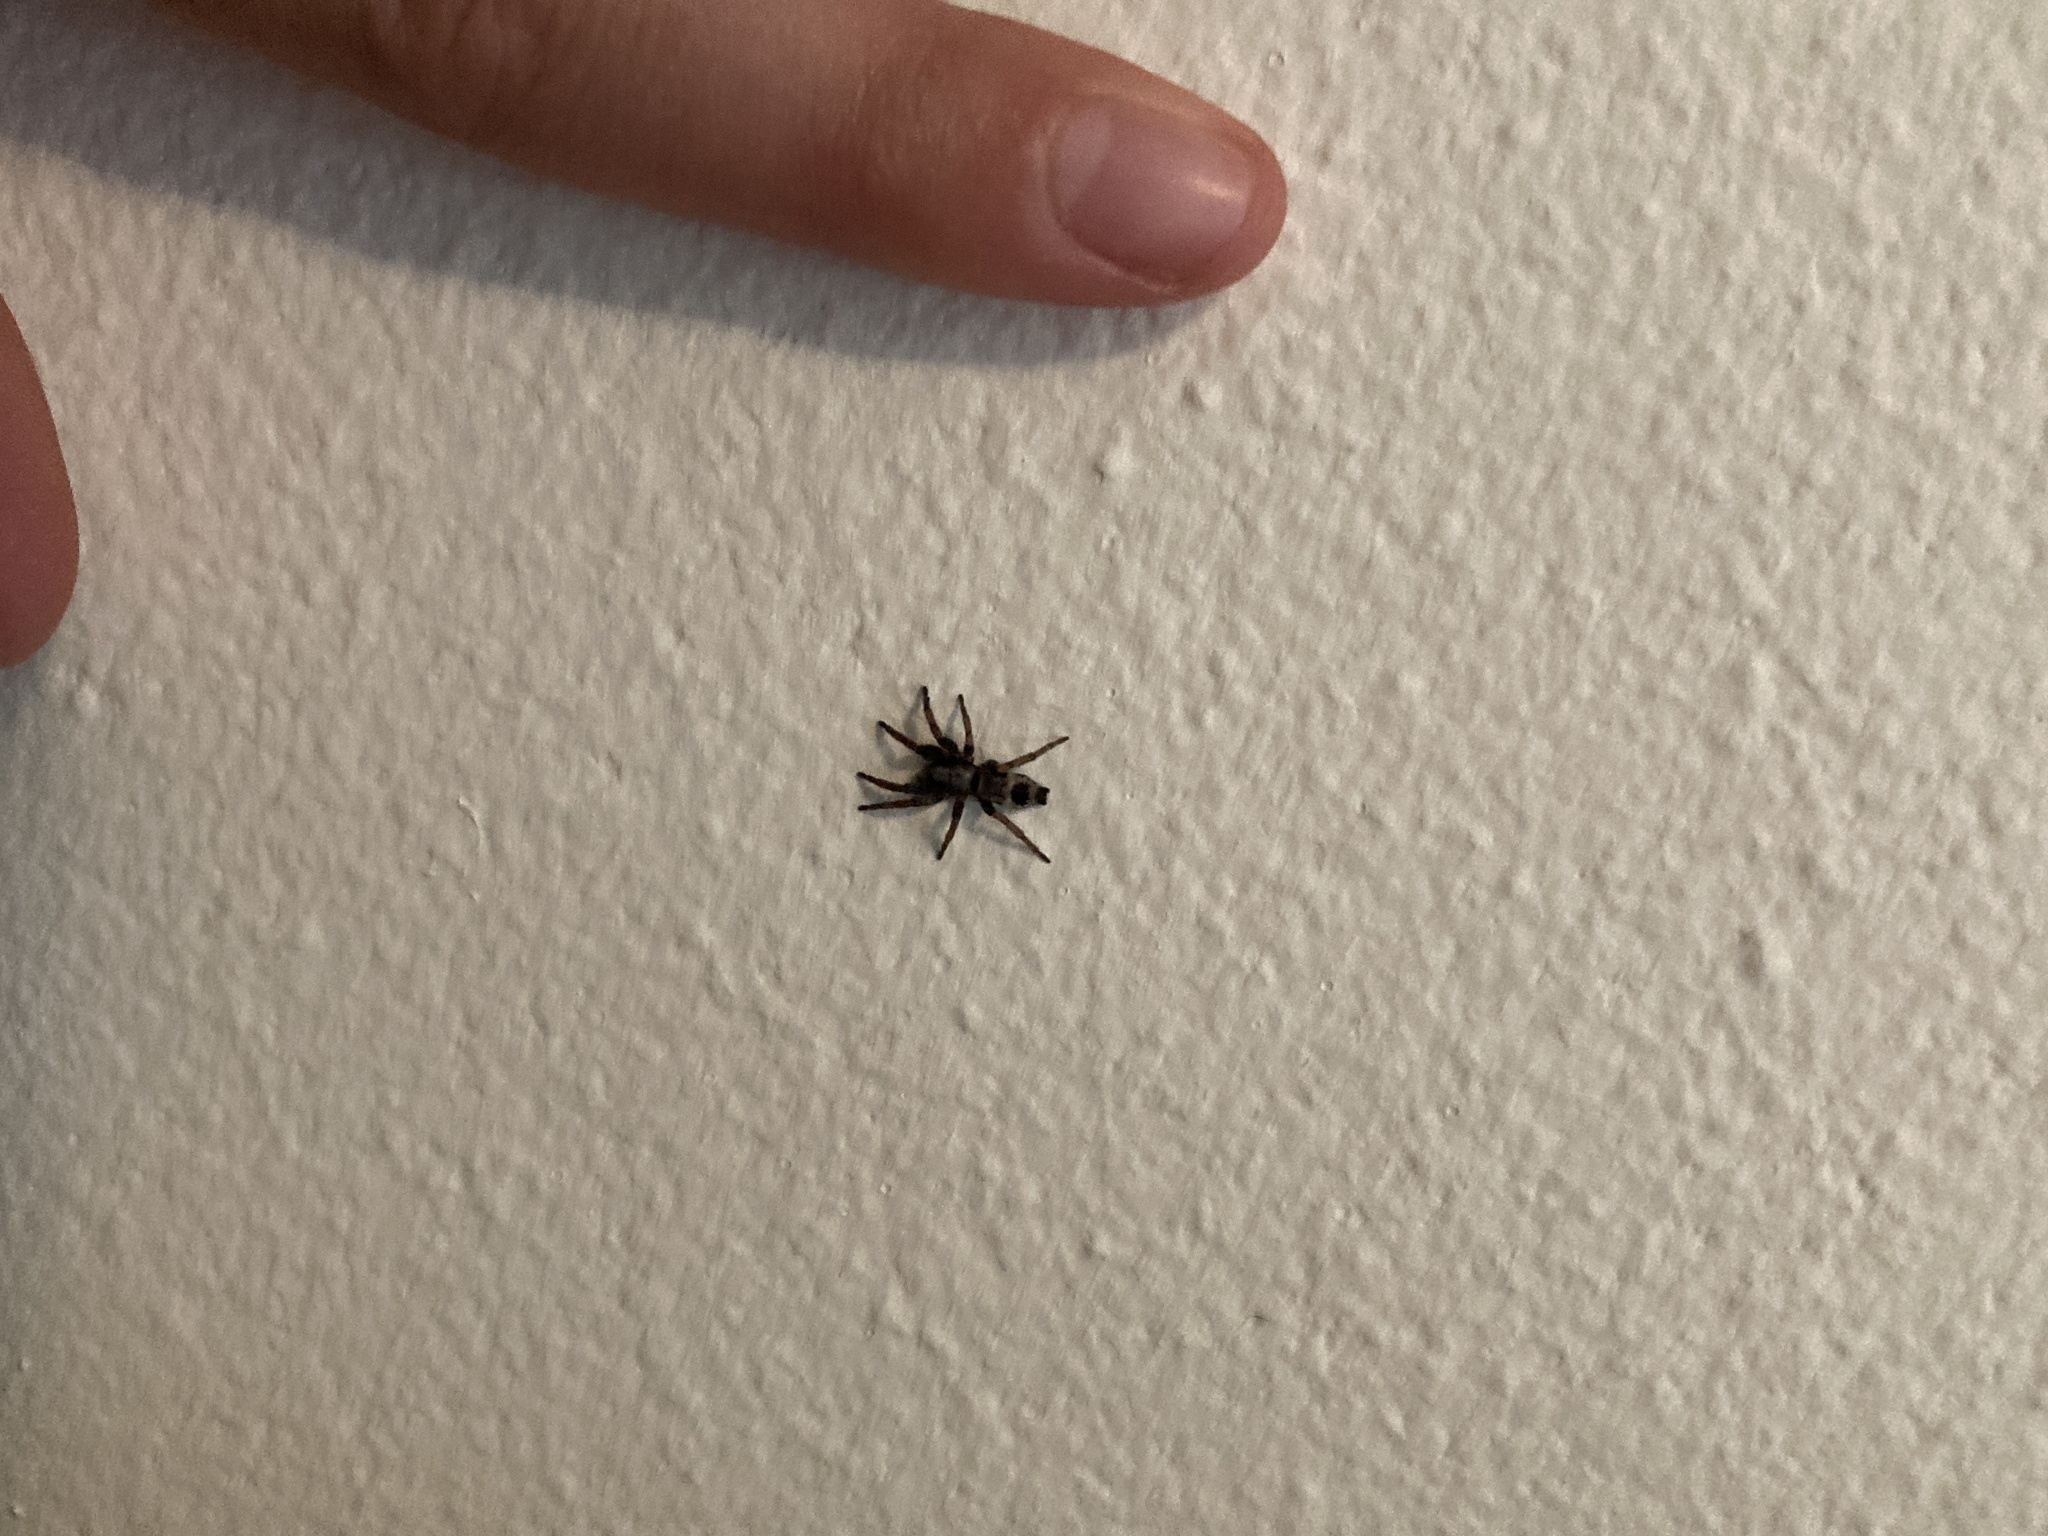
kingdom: Animalia
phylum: Arthropoda
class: Arachnida
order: Araneae
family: Gnaphosidae
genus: Sergiolus
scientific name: Sergiolus montanus
